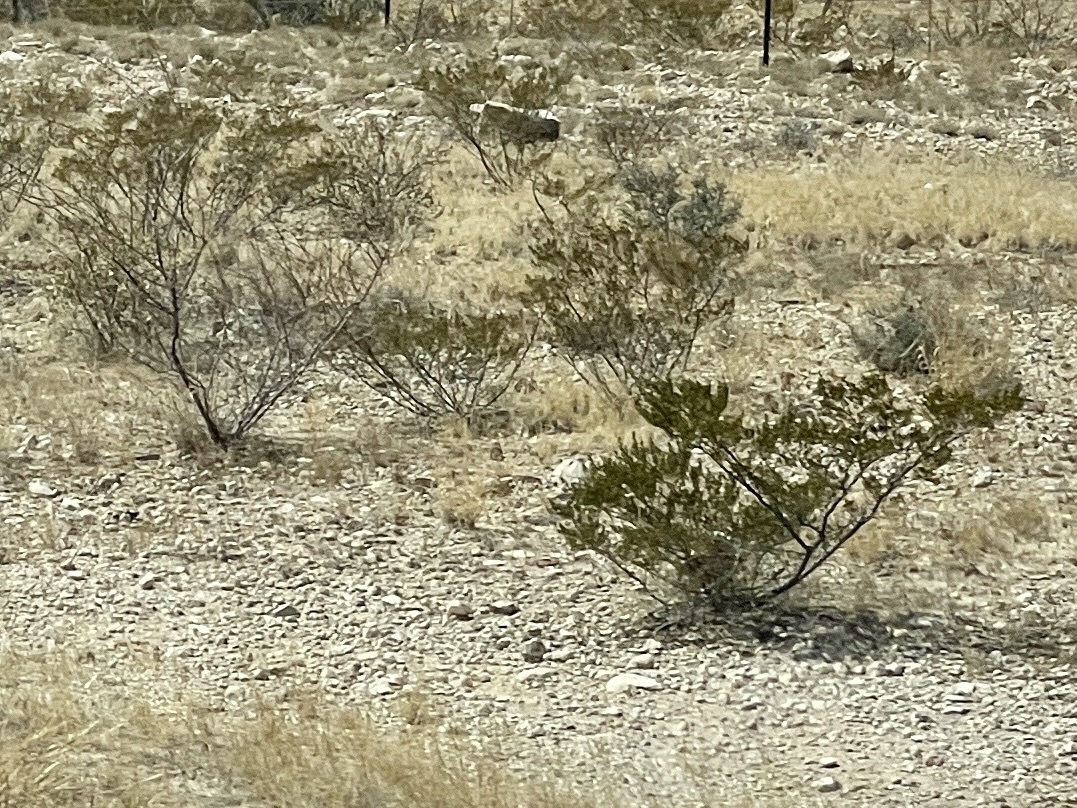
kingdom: Plantae
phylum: Tracheophyta
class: Magnoliopsida
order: Zygophyllales
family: Zygophyllaceae
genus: Larrea
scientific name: Larrea tridentata
